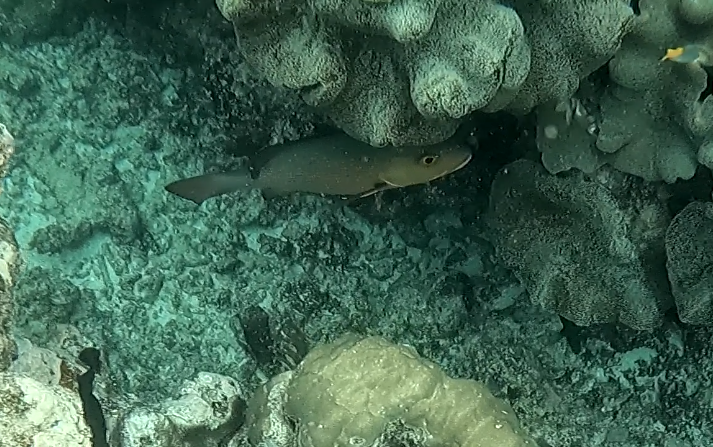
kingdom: Animalia
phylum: Chordata
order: Perciformes
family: Lutjanidae
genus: Lutjanus
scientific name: Lutjanus bohar
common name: Red bass
